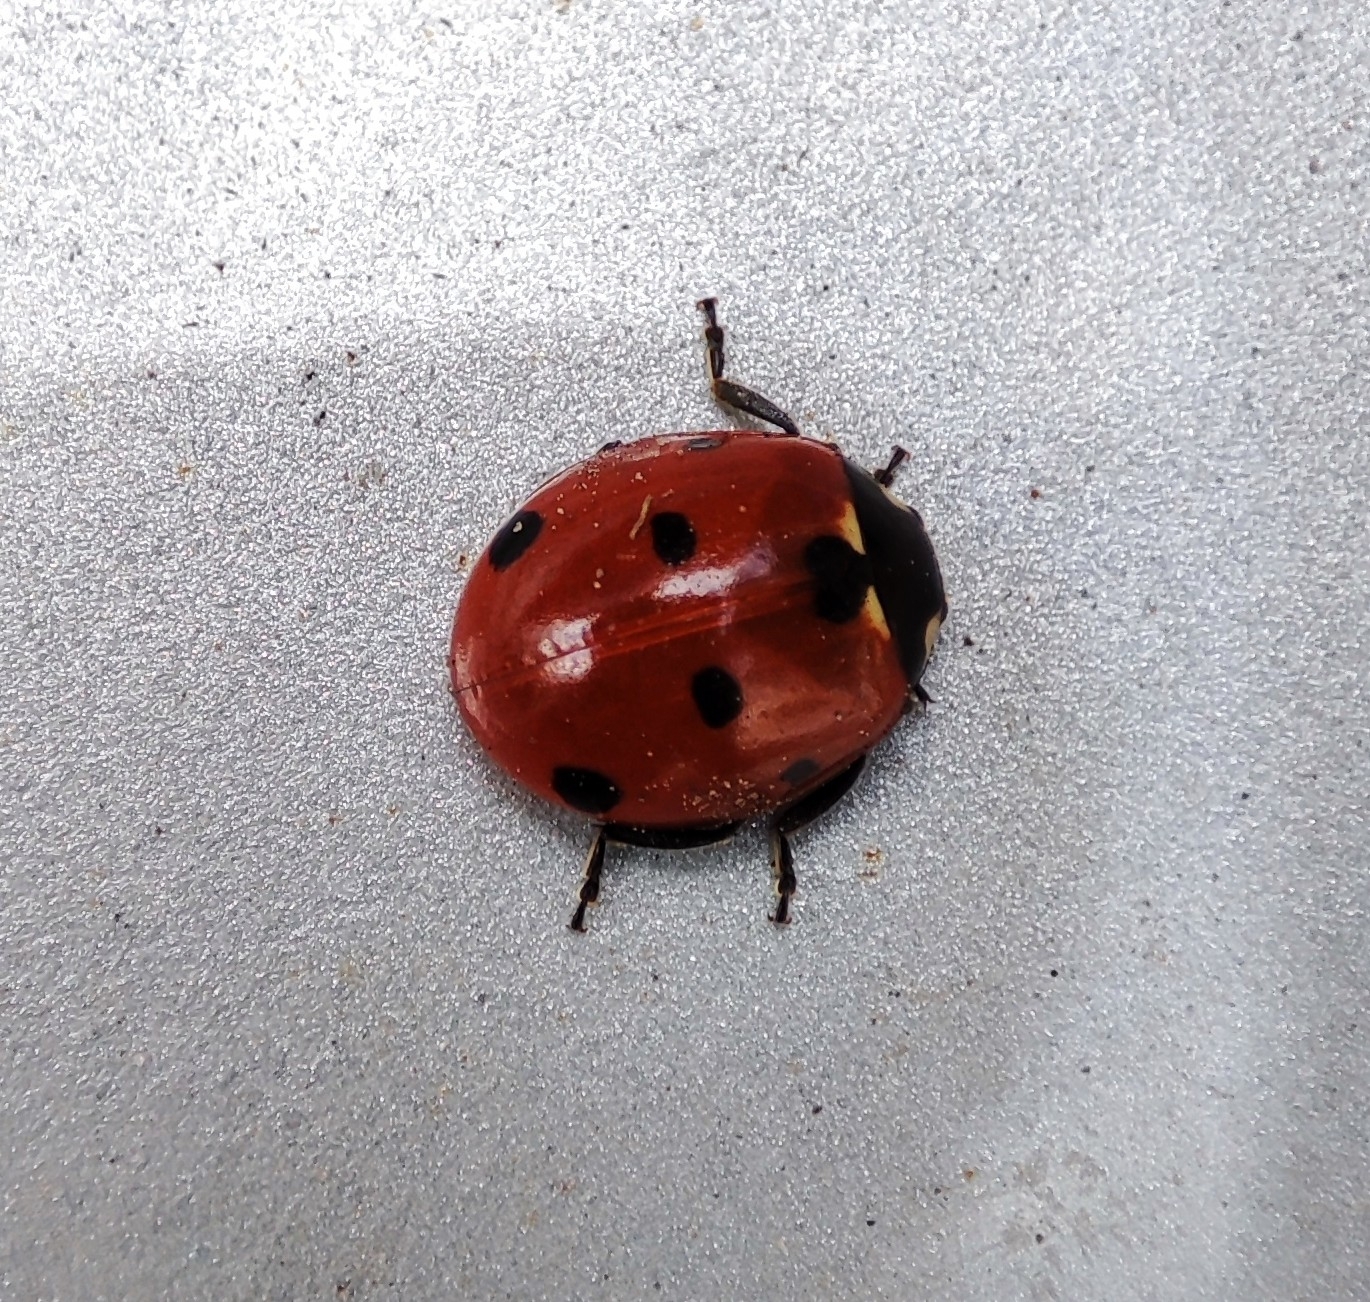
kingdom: Animalia
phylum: Arthropoda
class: Insecta
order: Coleoptera
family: Coccinellidae
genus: Coccinella
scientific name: Coccinella septempunctata
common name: Sevenspotted lady beetle
